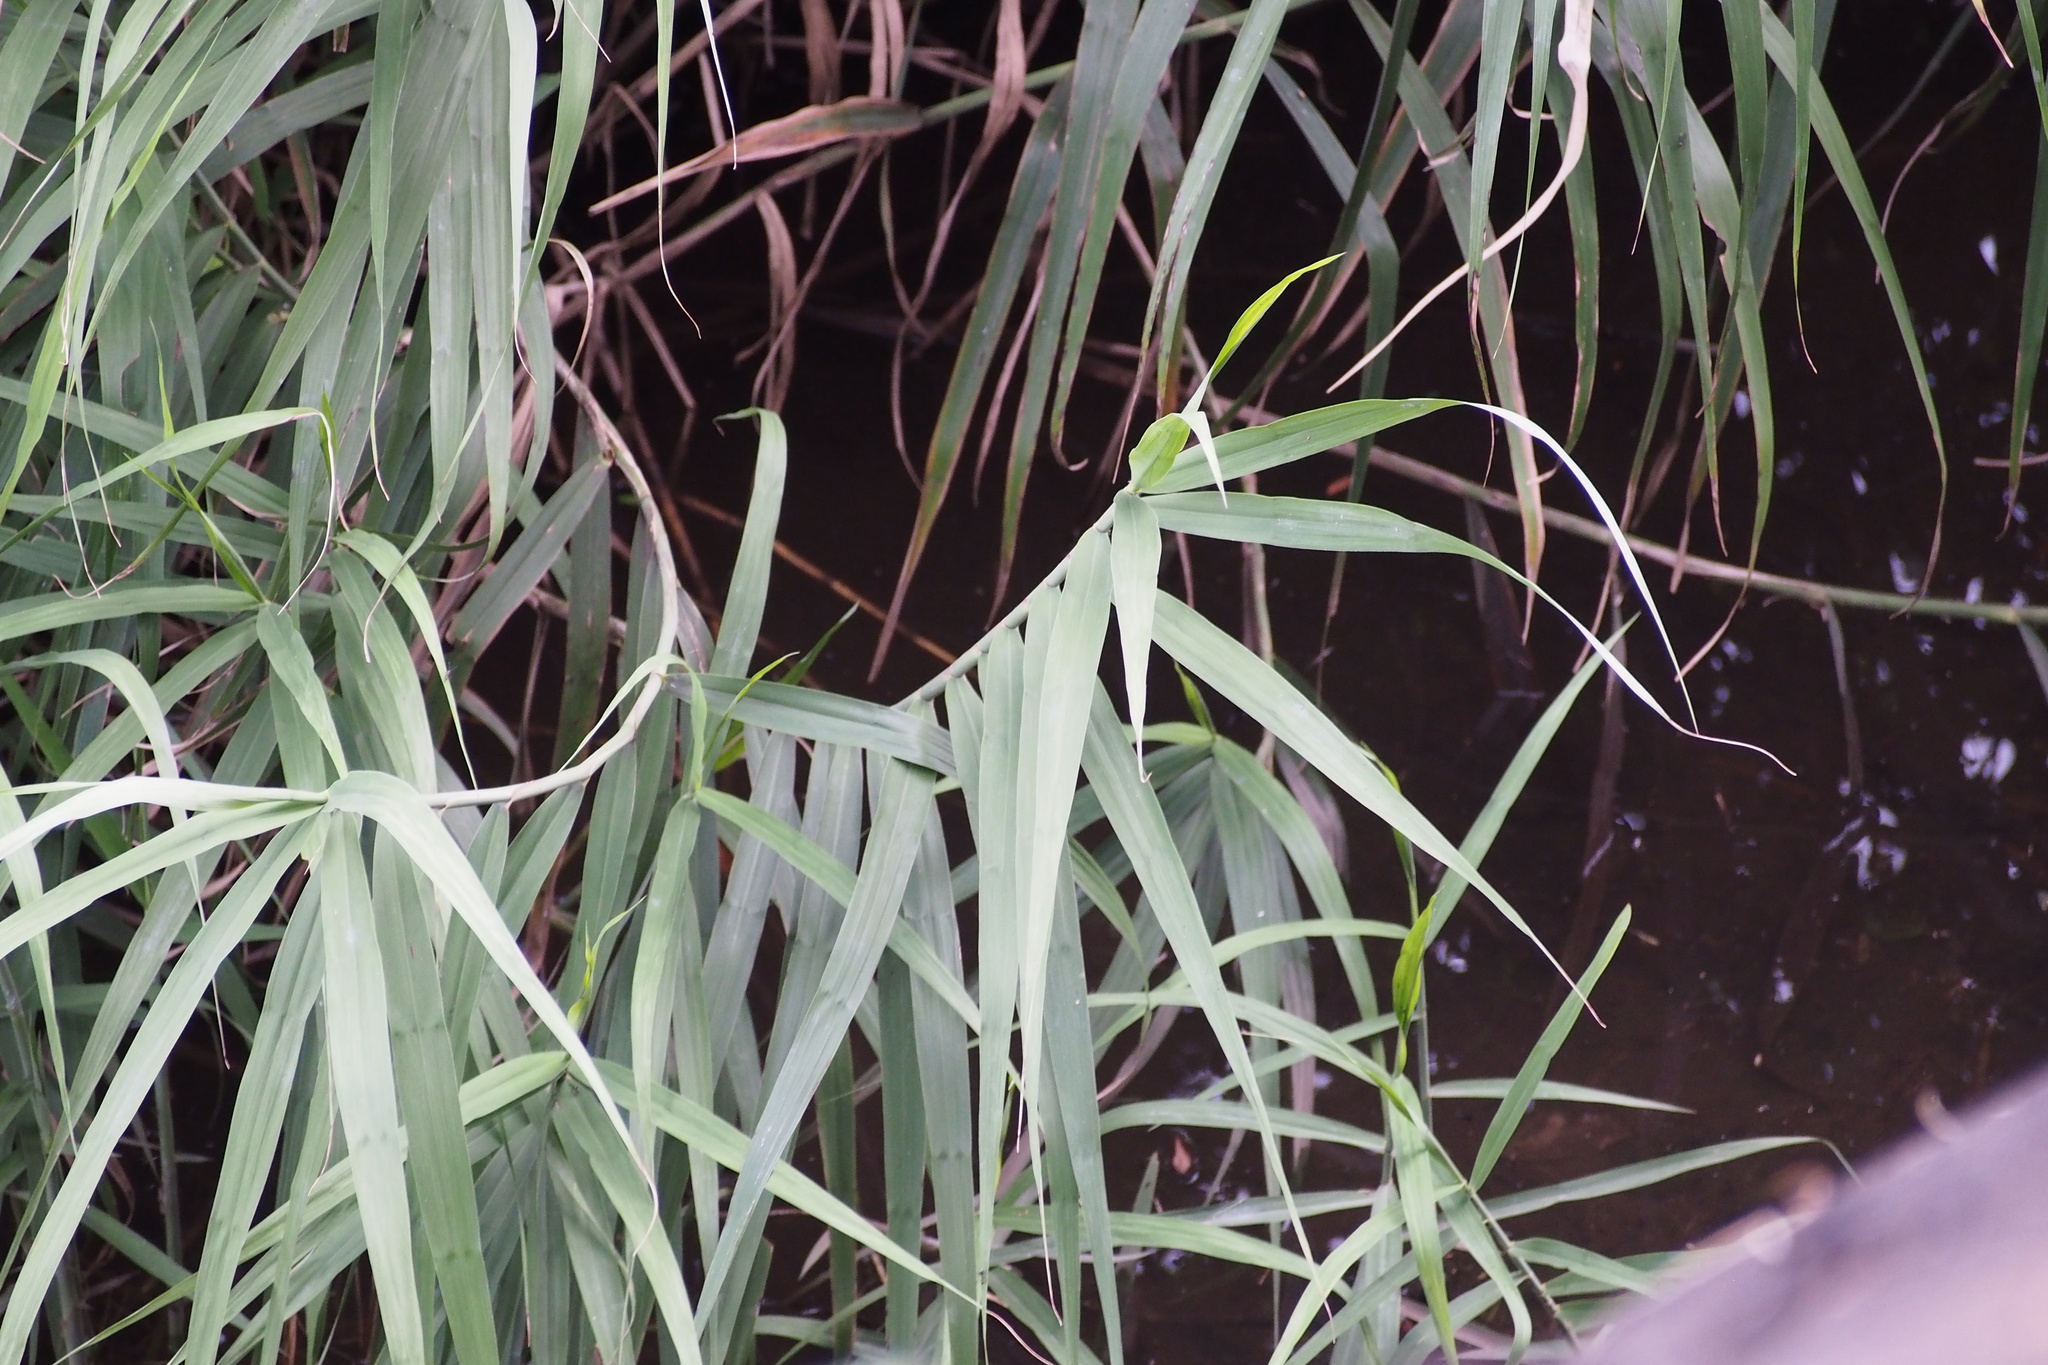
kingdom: Plantae
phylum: Tracheophyta
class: Liliopsida
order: Poales
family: Poaceae
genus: Phragmites
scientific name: Phragmites australis
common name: Common reed
